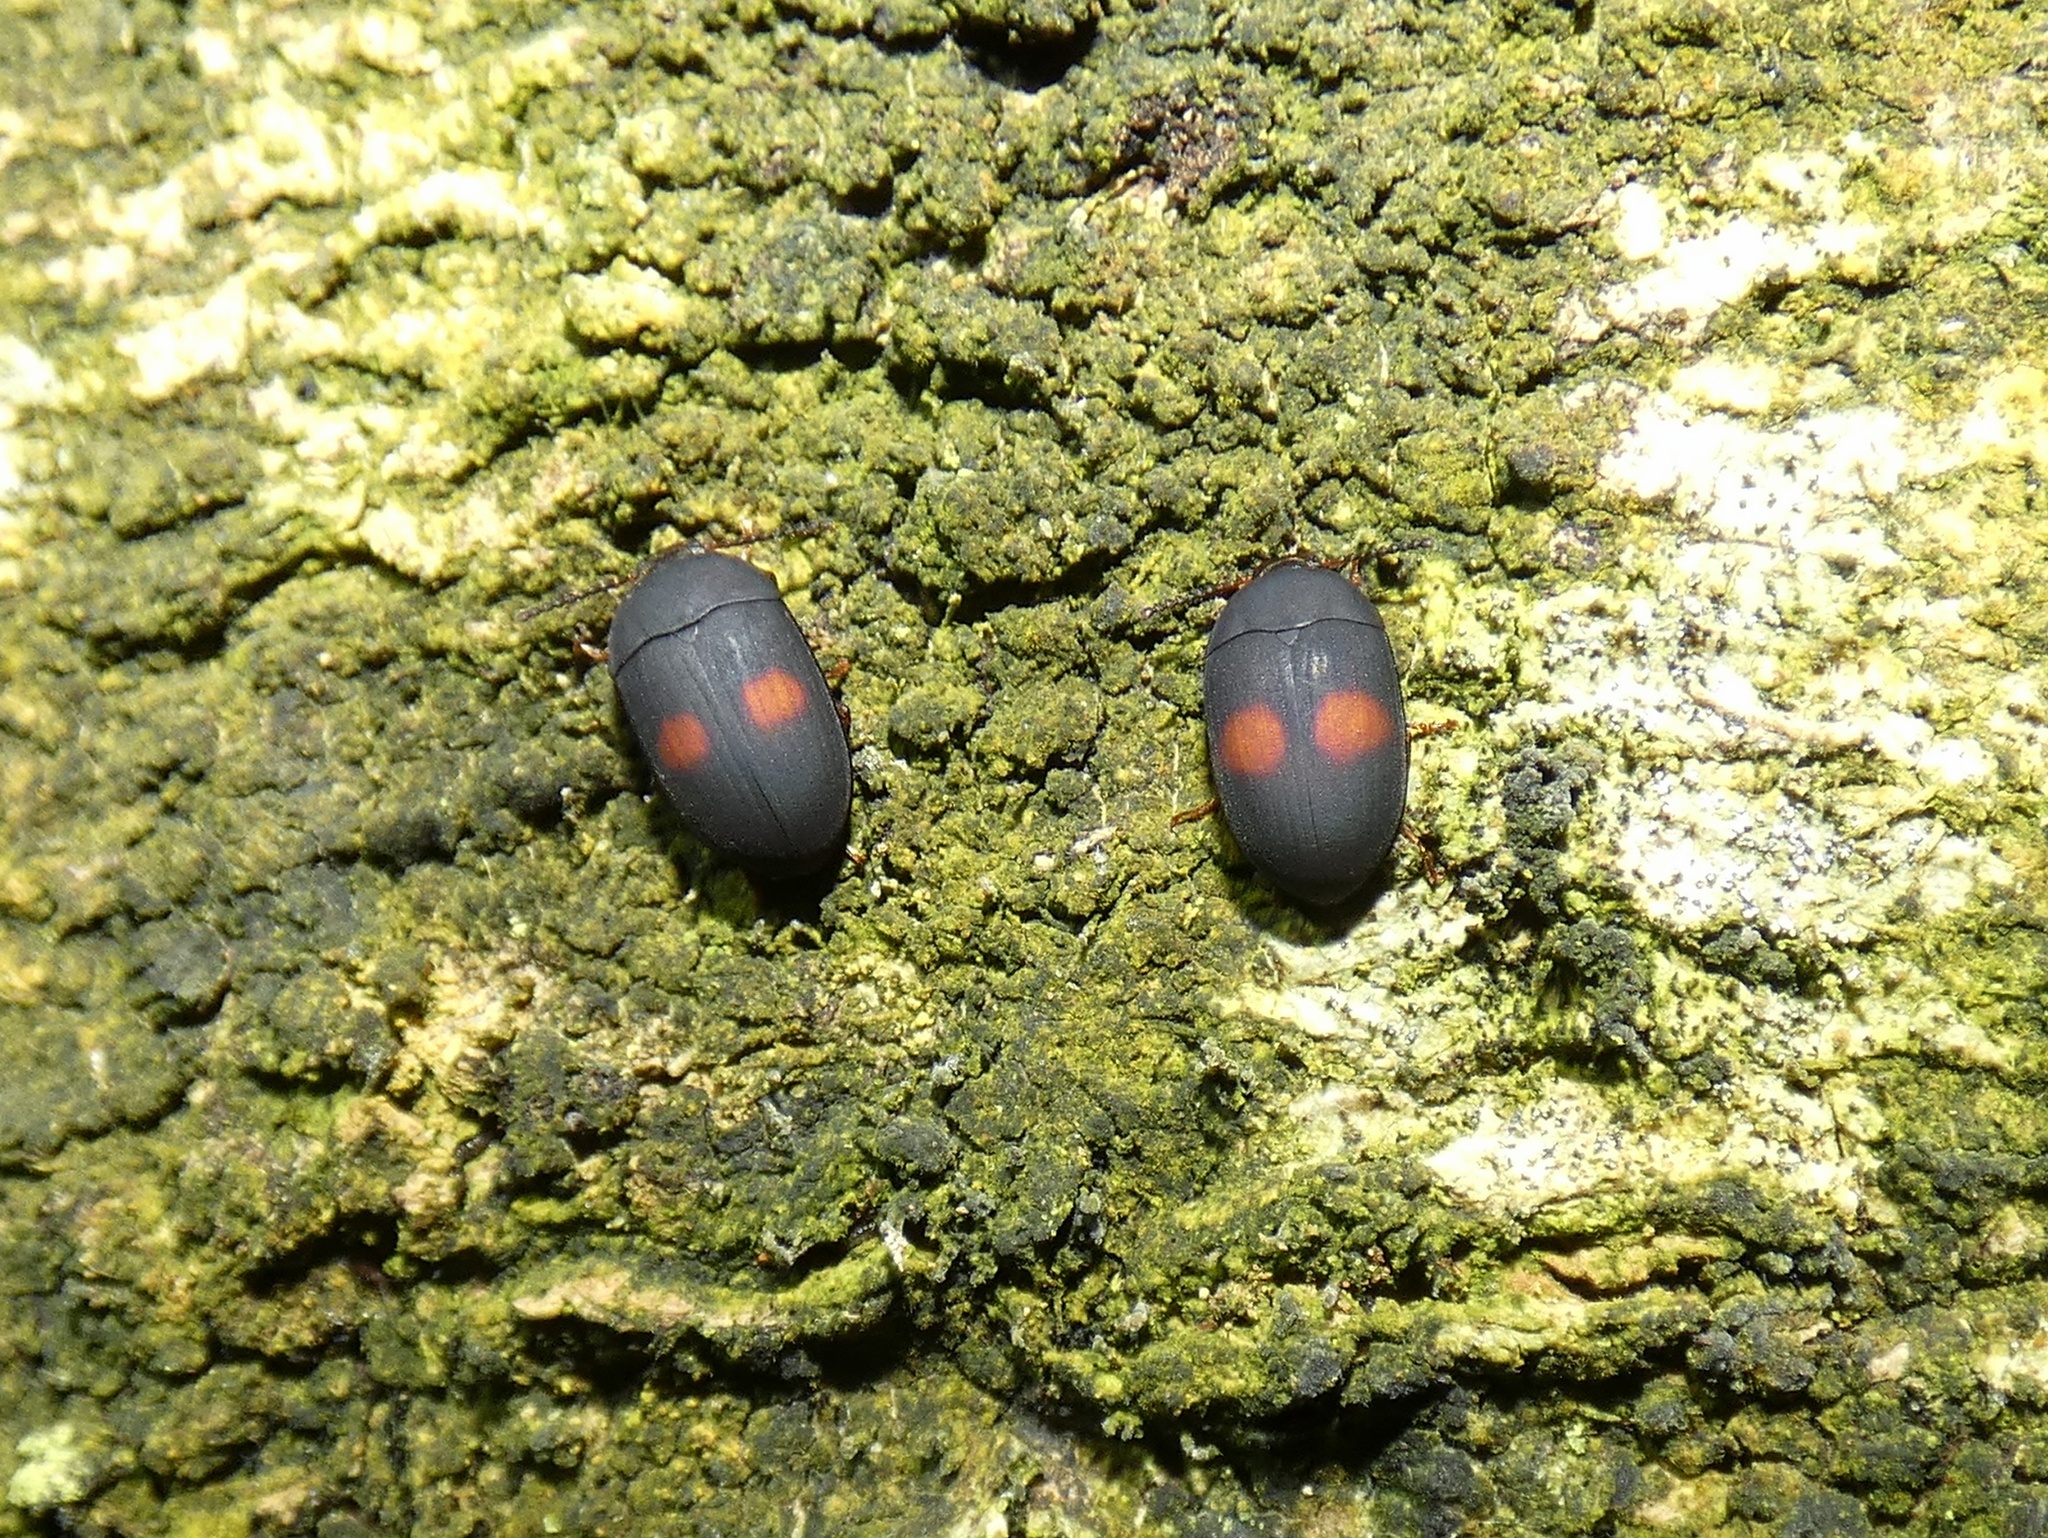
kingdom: Animalia
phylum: Arthropoda
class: Insecta
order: Coleoptera
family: Tenebrionidae
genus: Platydema
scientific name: Platydema bimaculata
